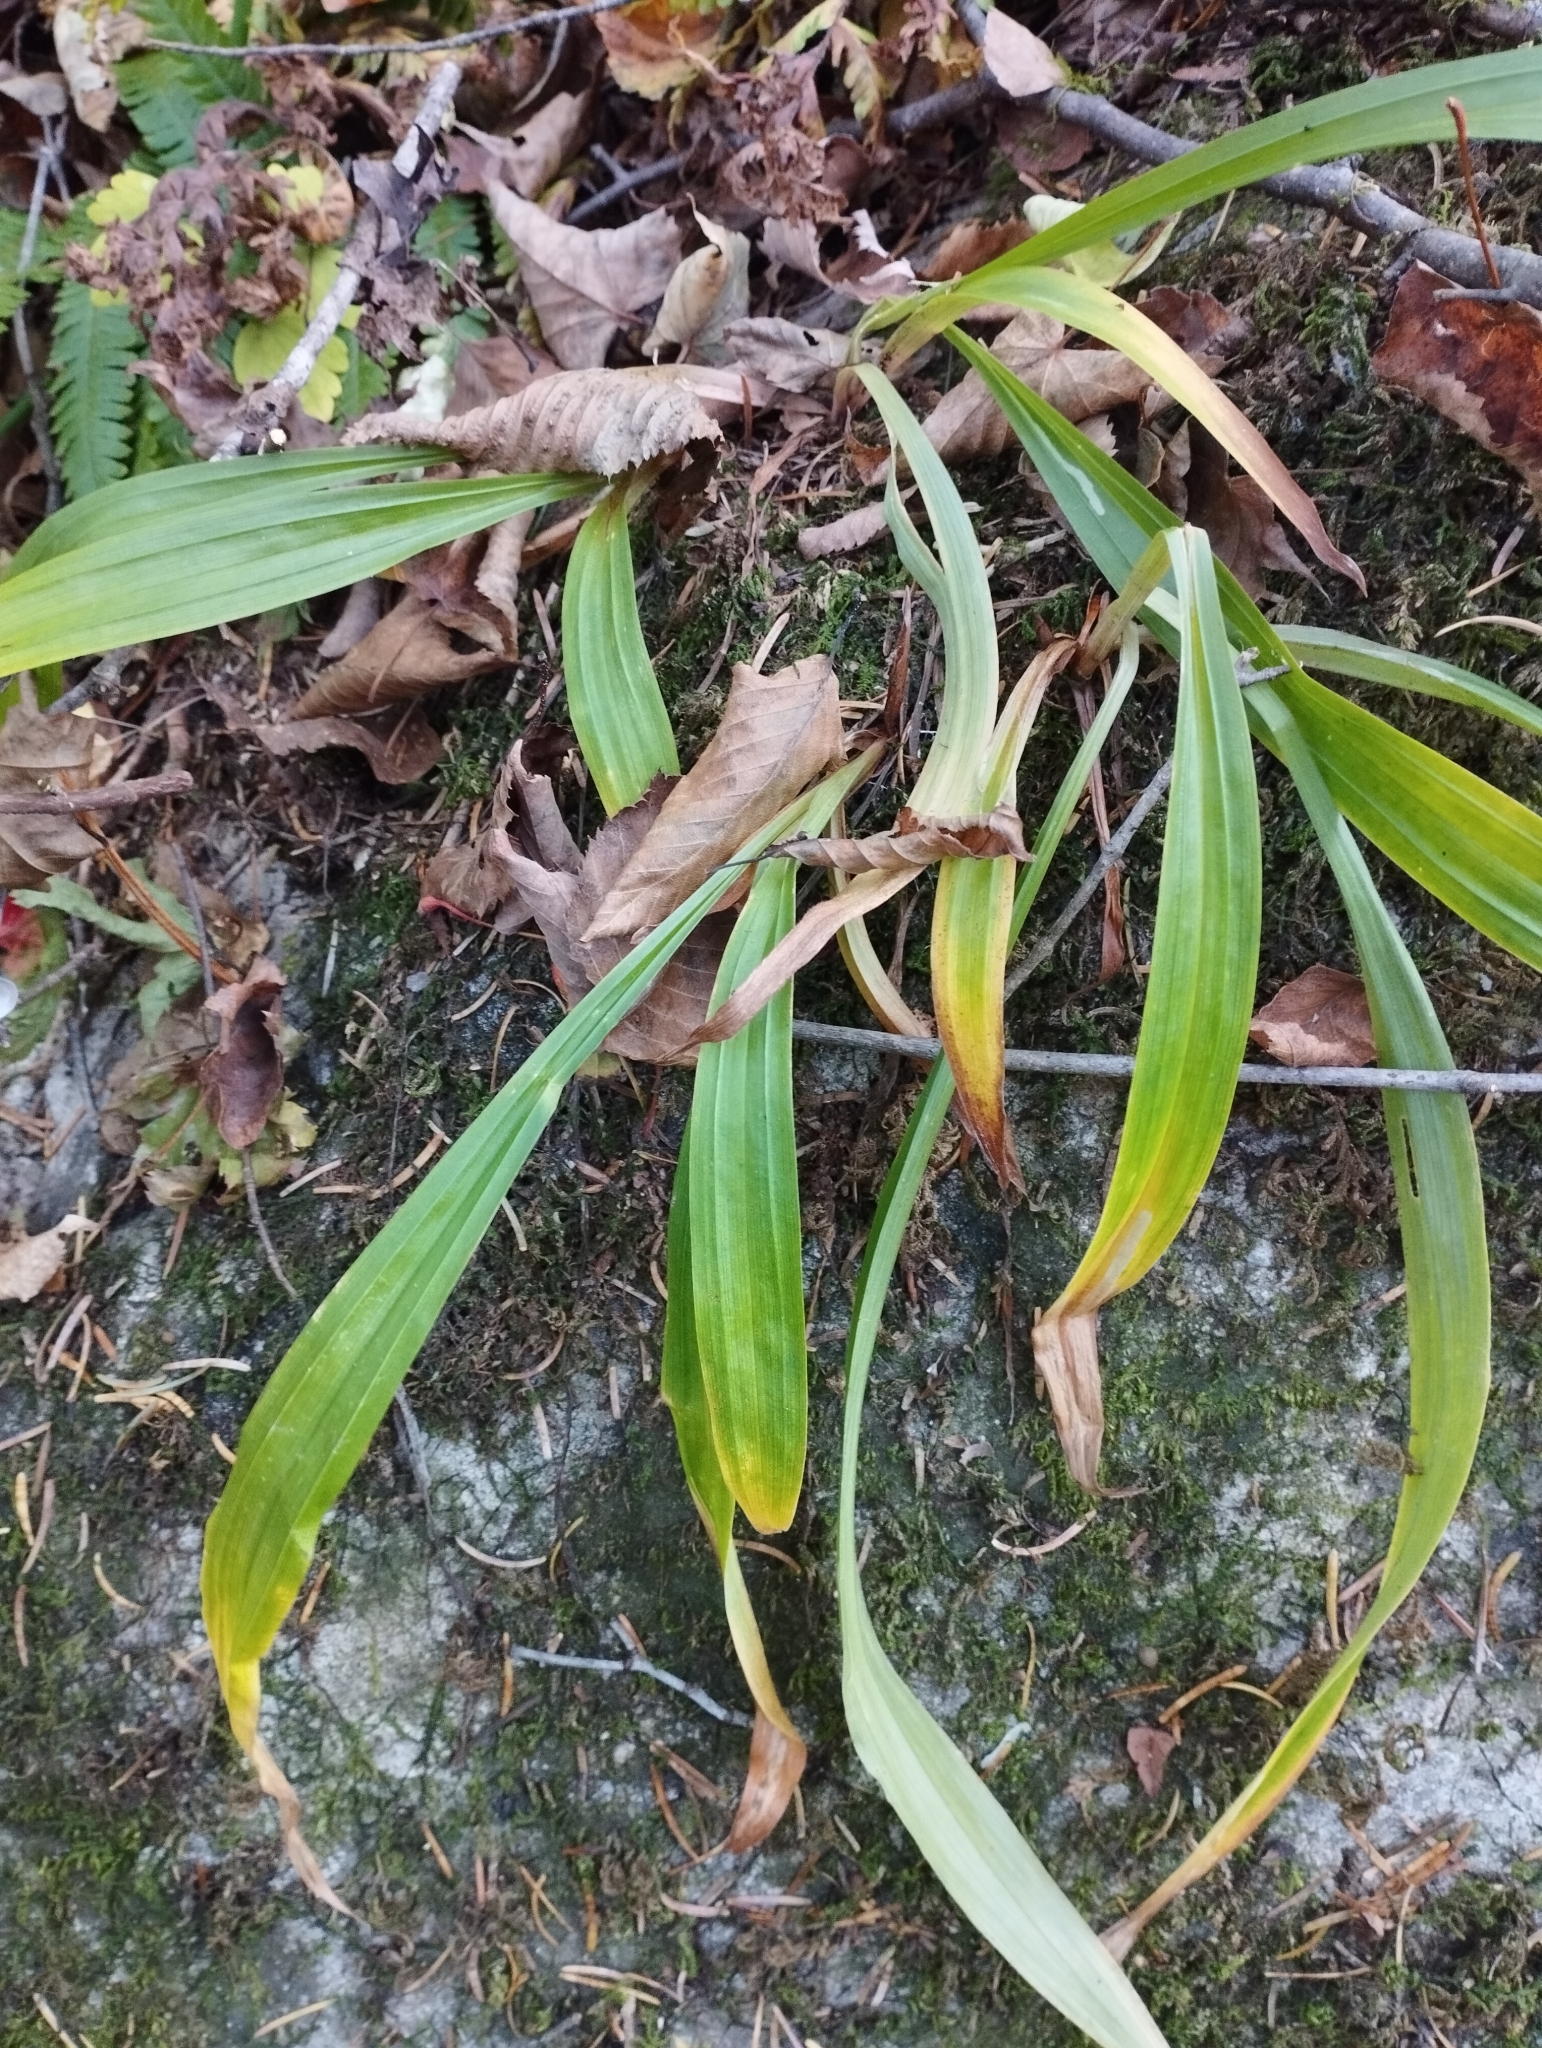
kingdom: Plantae
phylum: Tracheophyta
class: Liliopsida
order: Poales
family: Cyperaceae
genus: Carex
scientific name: Carex siderosticta
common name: Broadleaf sedge
